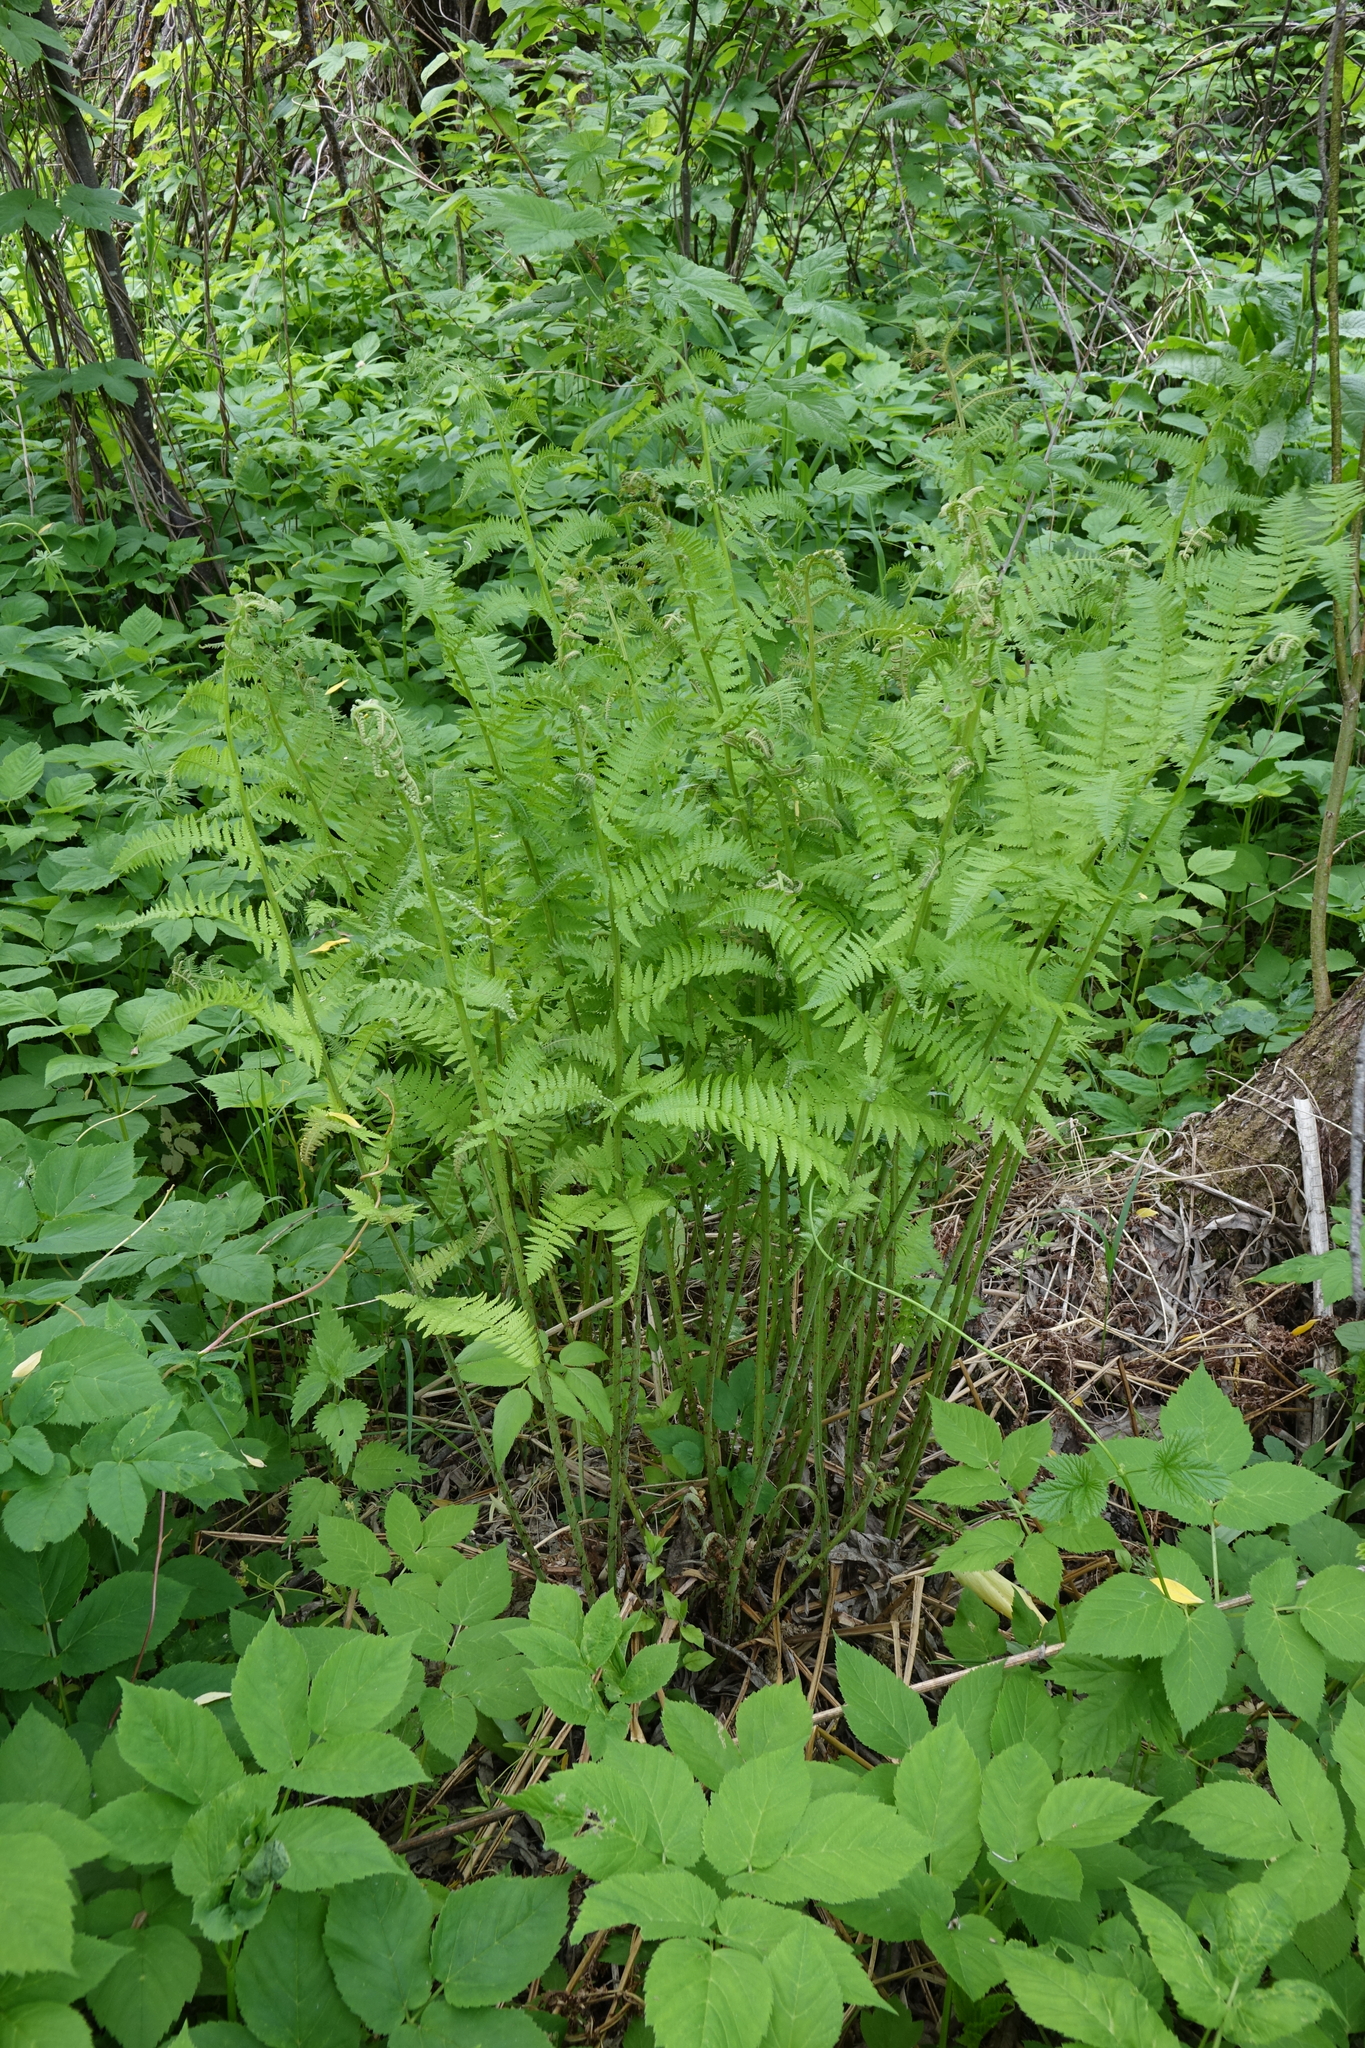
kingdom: Plantae
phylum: Tracheophyta
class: Polypodiopsida
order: Polypodiales
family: Athyriaceae
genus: Athyrium
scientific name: Athyrium filix-femina
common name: Lady fern
